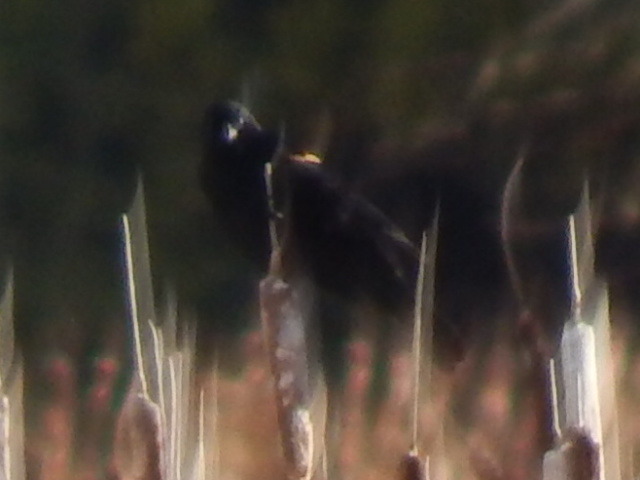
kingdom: Animalia
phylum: Chordata
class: Aves
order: Passeriformes
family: Icteridae
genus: Agelaius
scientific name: Agelaius phoeniceus
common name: Red-winged blackbird
